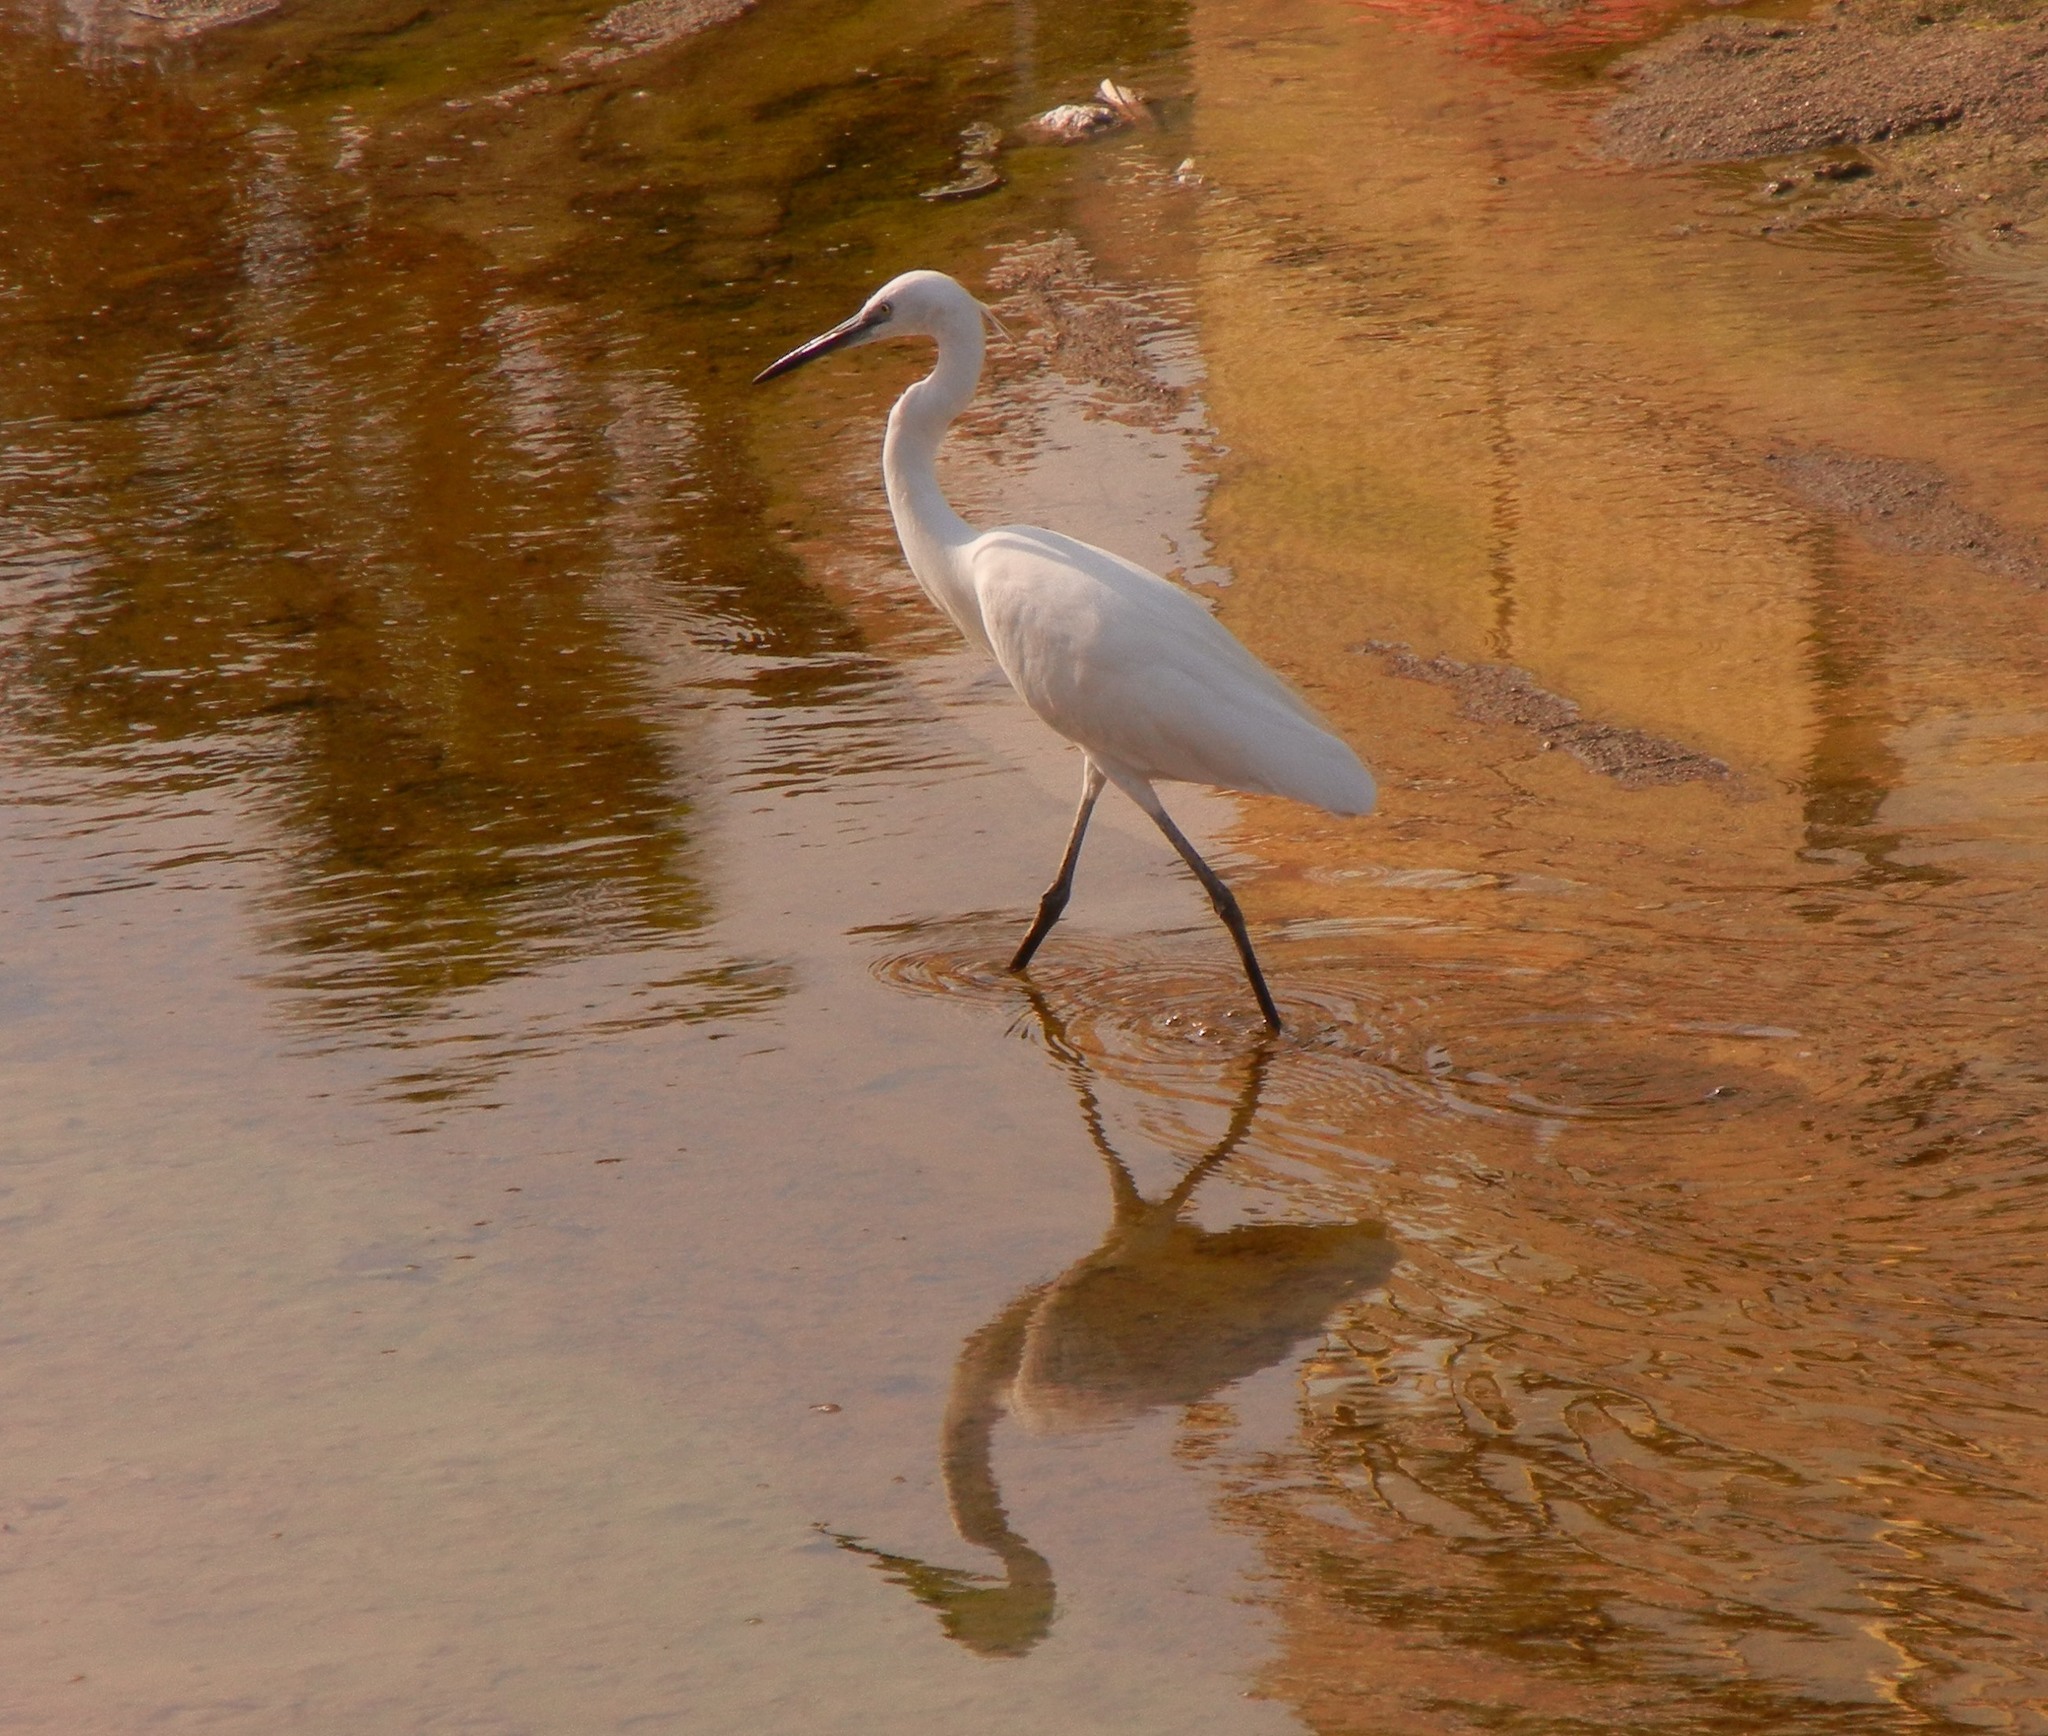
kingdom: Animalia
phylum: Chordata
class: Aves
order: Pelecaniformes
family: Ardeidae
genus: Egretta
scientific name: Egretta garzetta
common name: Little egret
